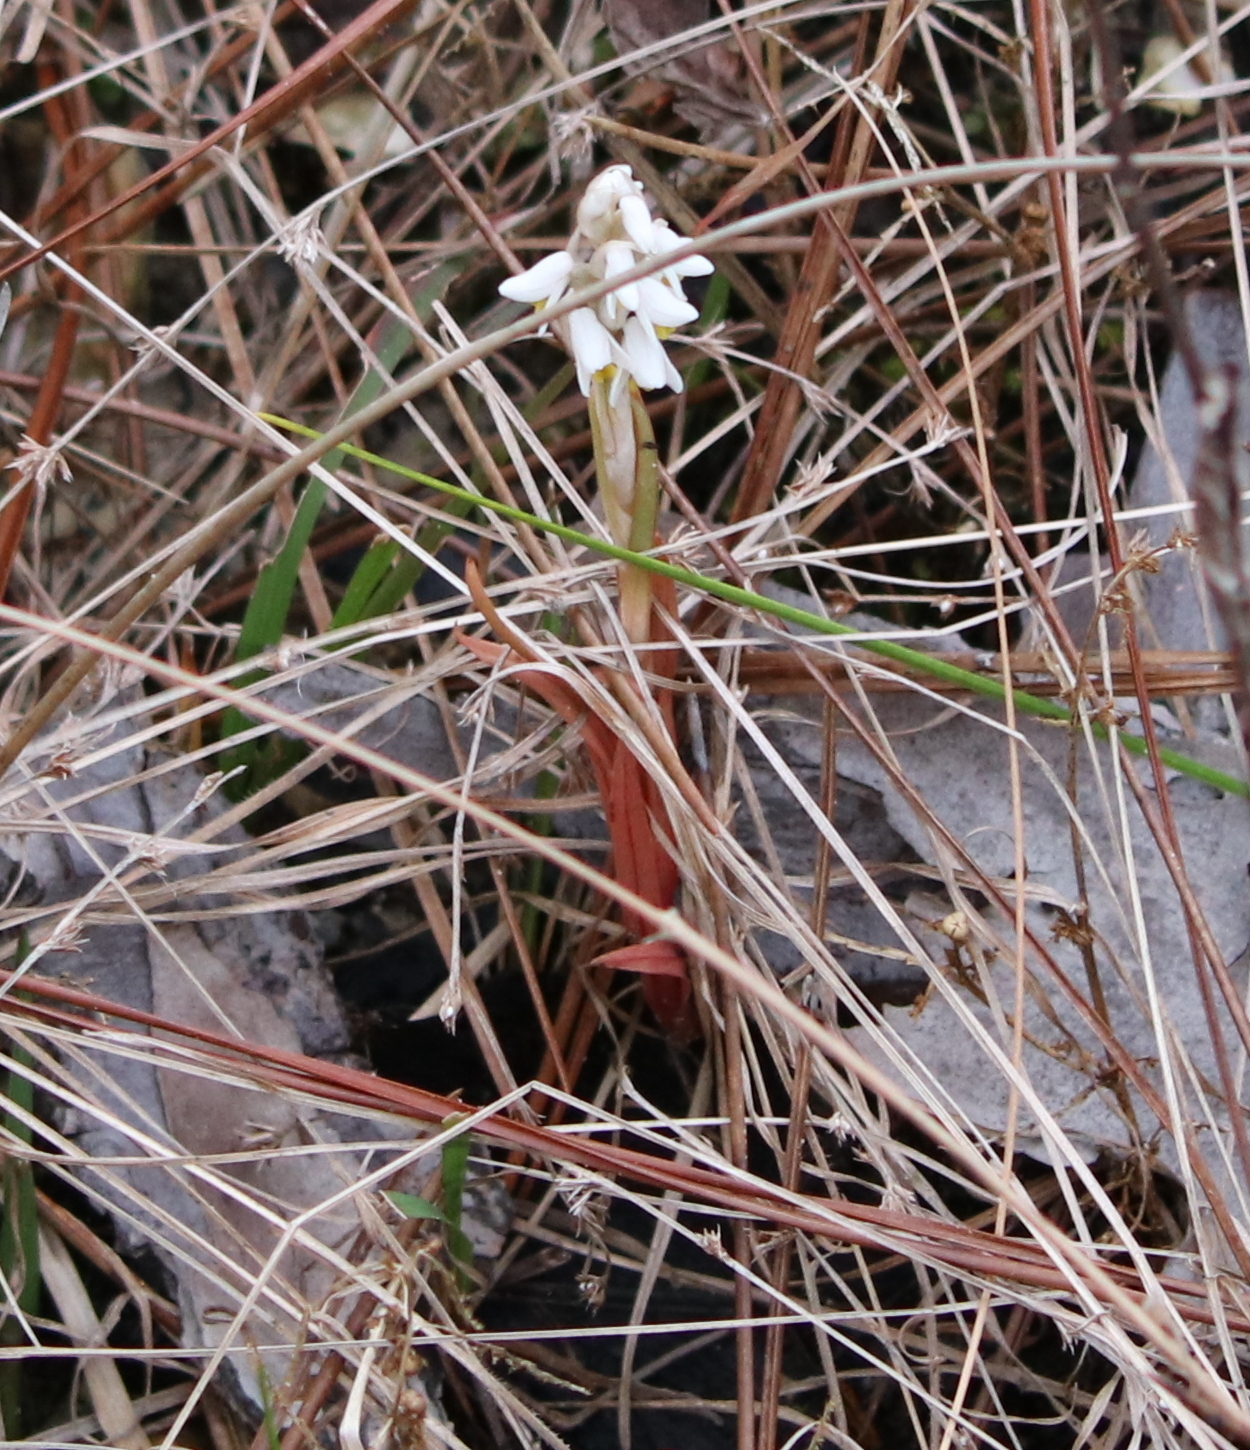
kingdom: Plantae
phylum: Tracheophyta
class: Liliopsida
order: Asparagales
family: Orchidaceae
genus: Zeuxine
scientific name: Zeuxine strateumatica
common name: Soldier's orchid
